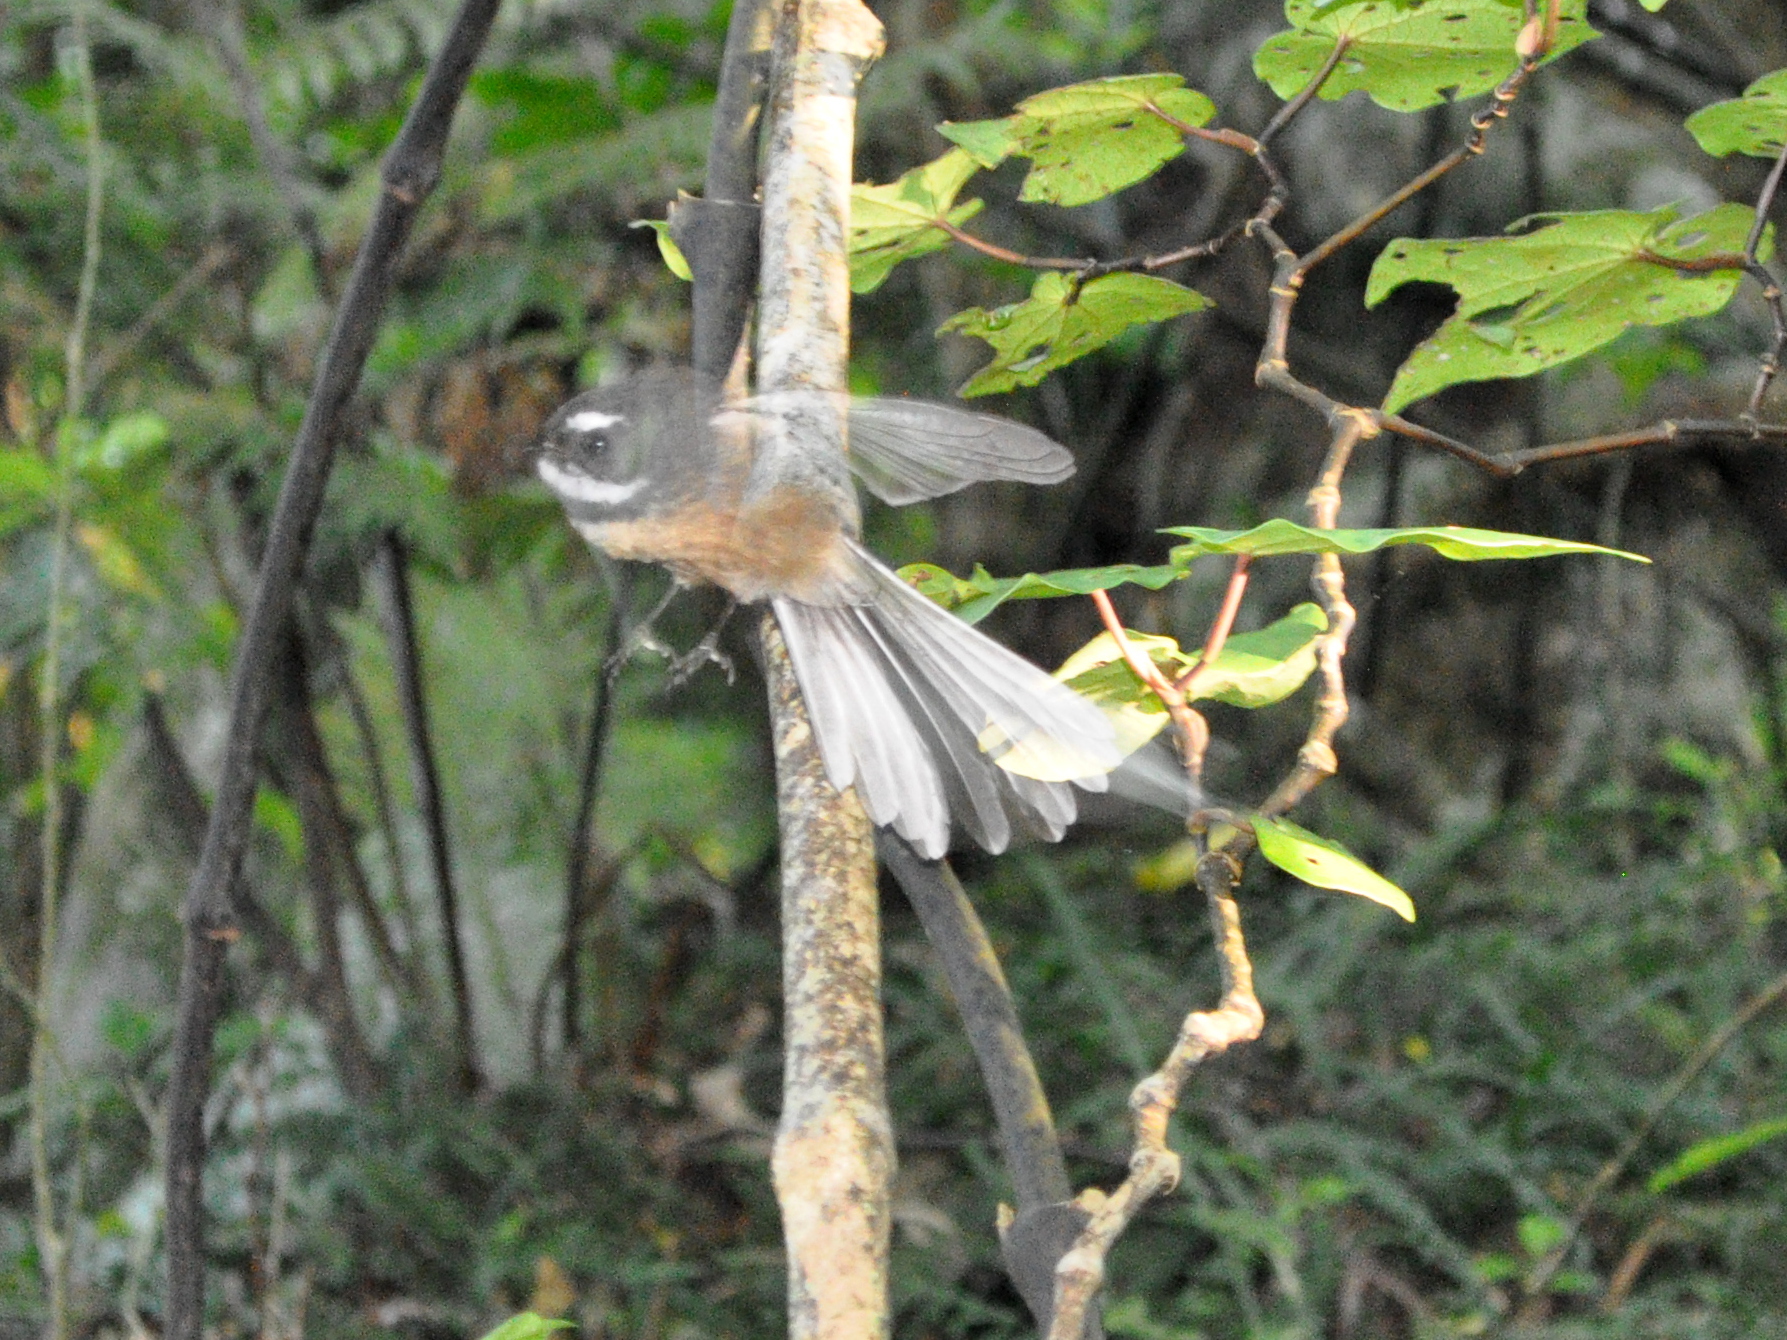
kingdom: Animalia
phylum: Chordata
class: Aves
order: Passeriformes
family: Rhipiduridae
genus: Rhipidura
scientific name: Rhipidura fuliginosa
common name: New zealand fantail
